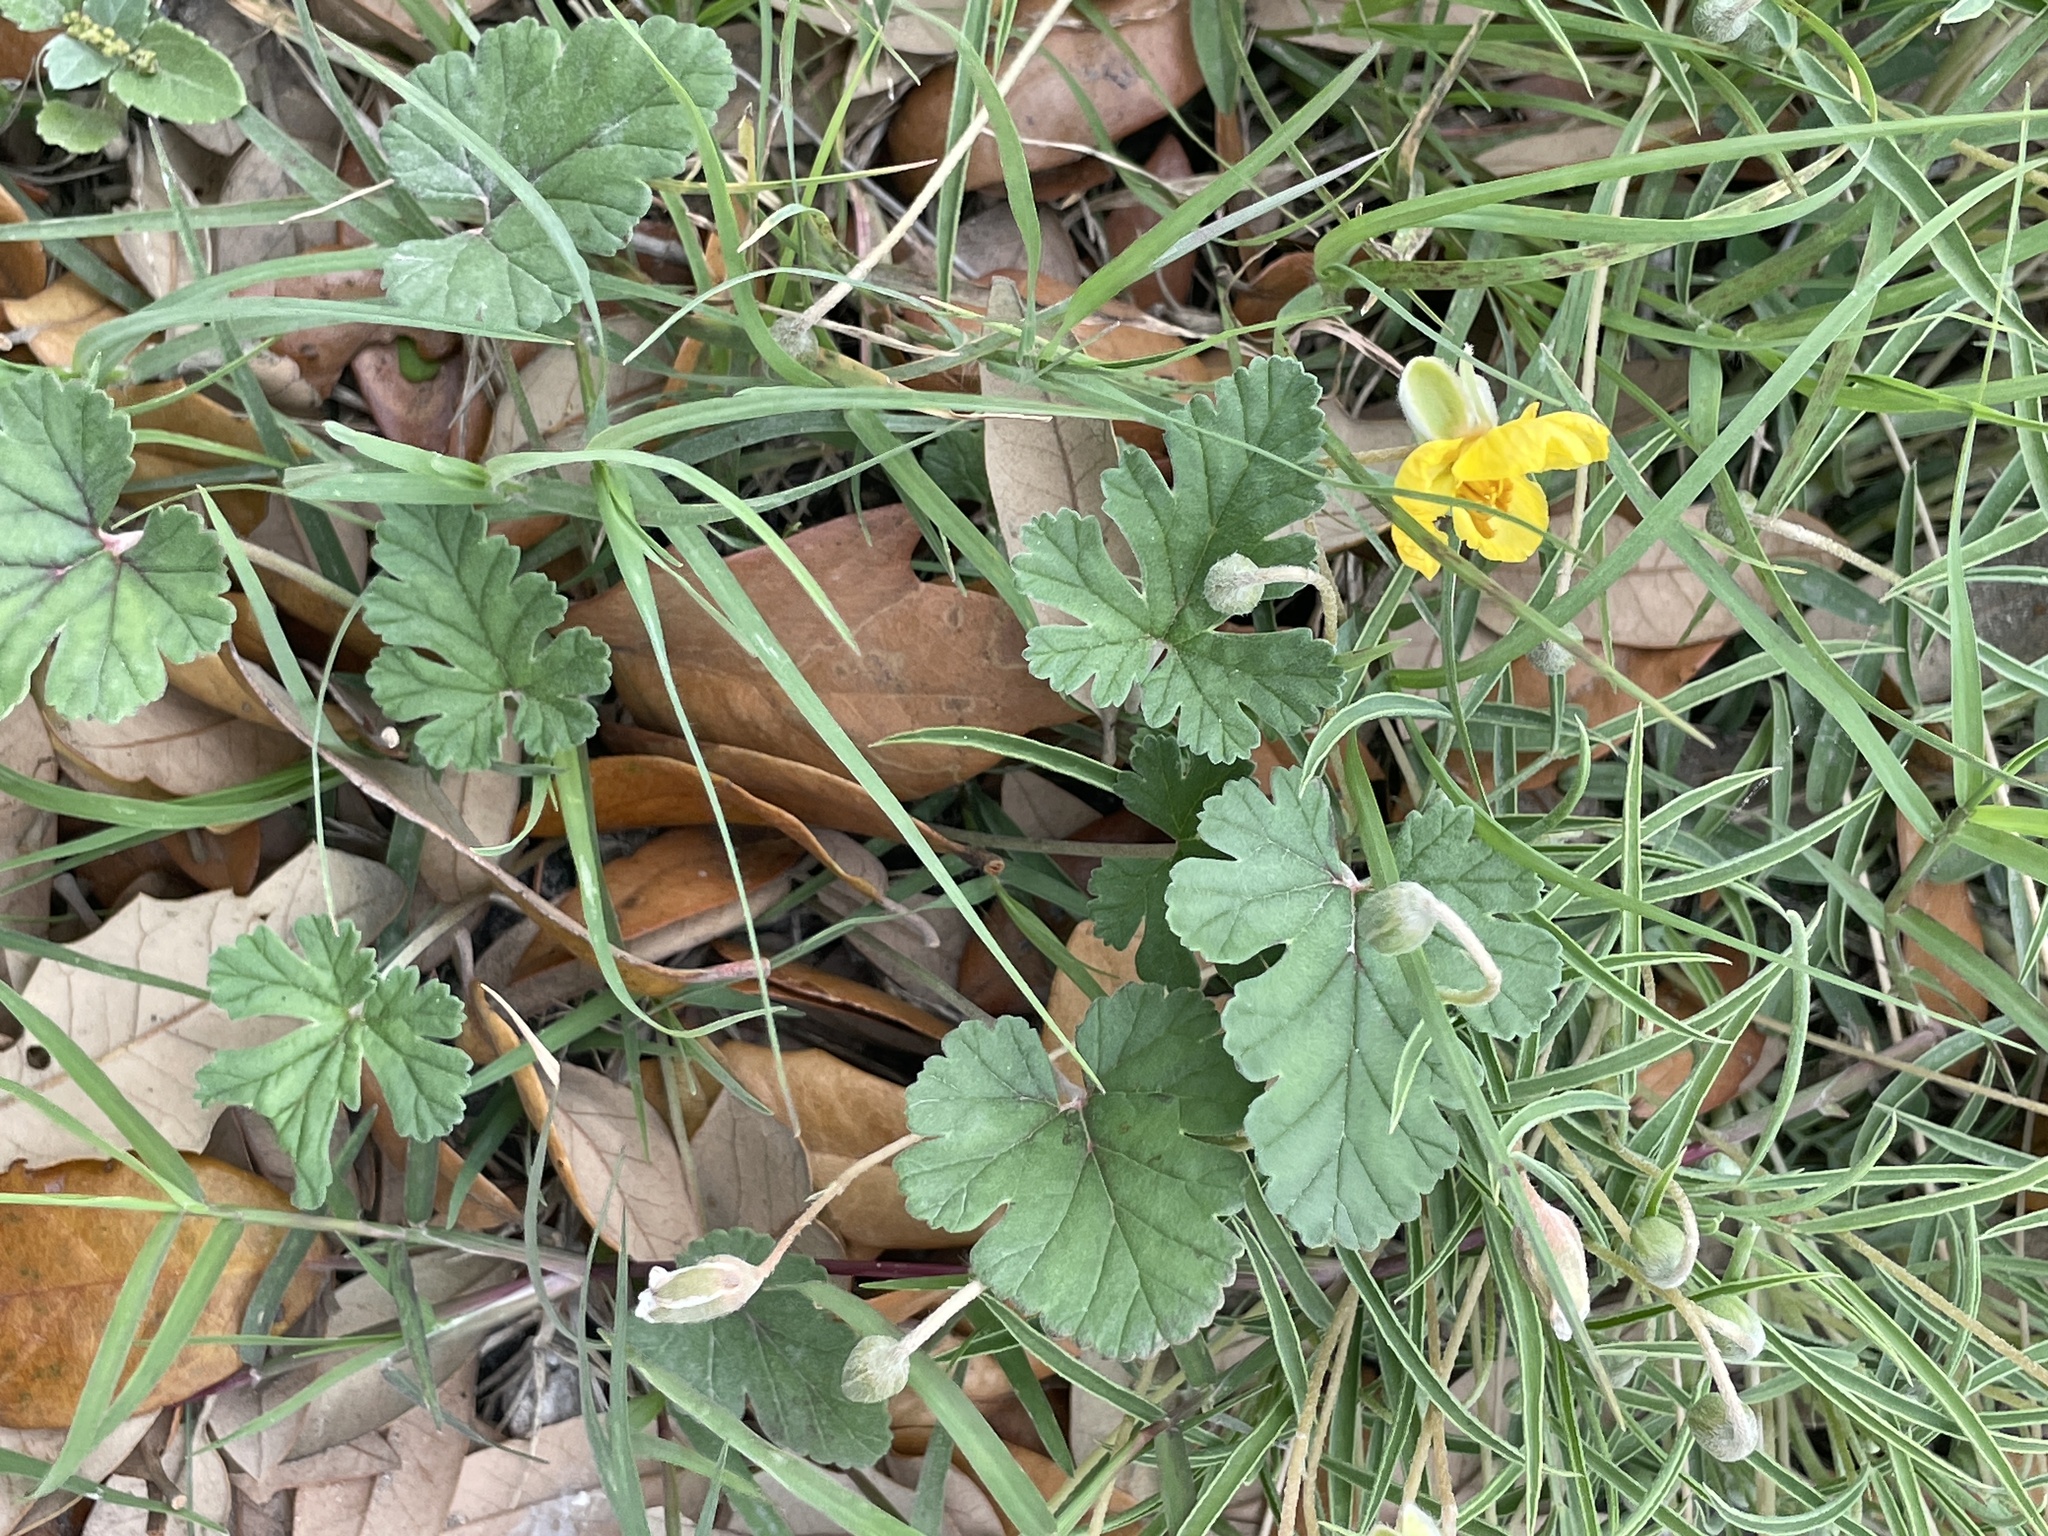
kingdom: Plantae
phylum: Tracheophyta
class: Magnoliopsida
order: Geraniales
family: Geraniaceae
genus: Erodium
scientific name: Erodium texanum
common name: Texas stork's-bill
